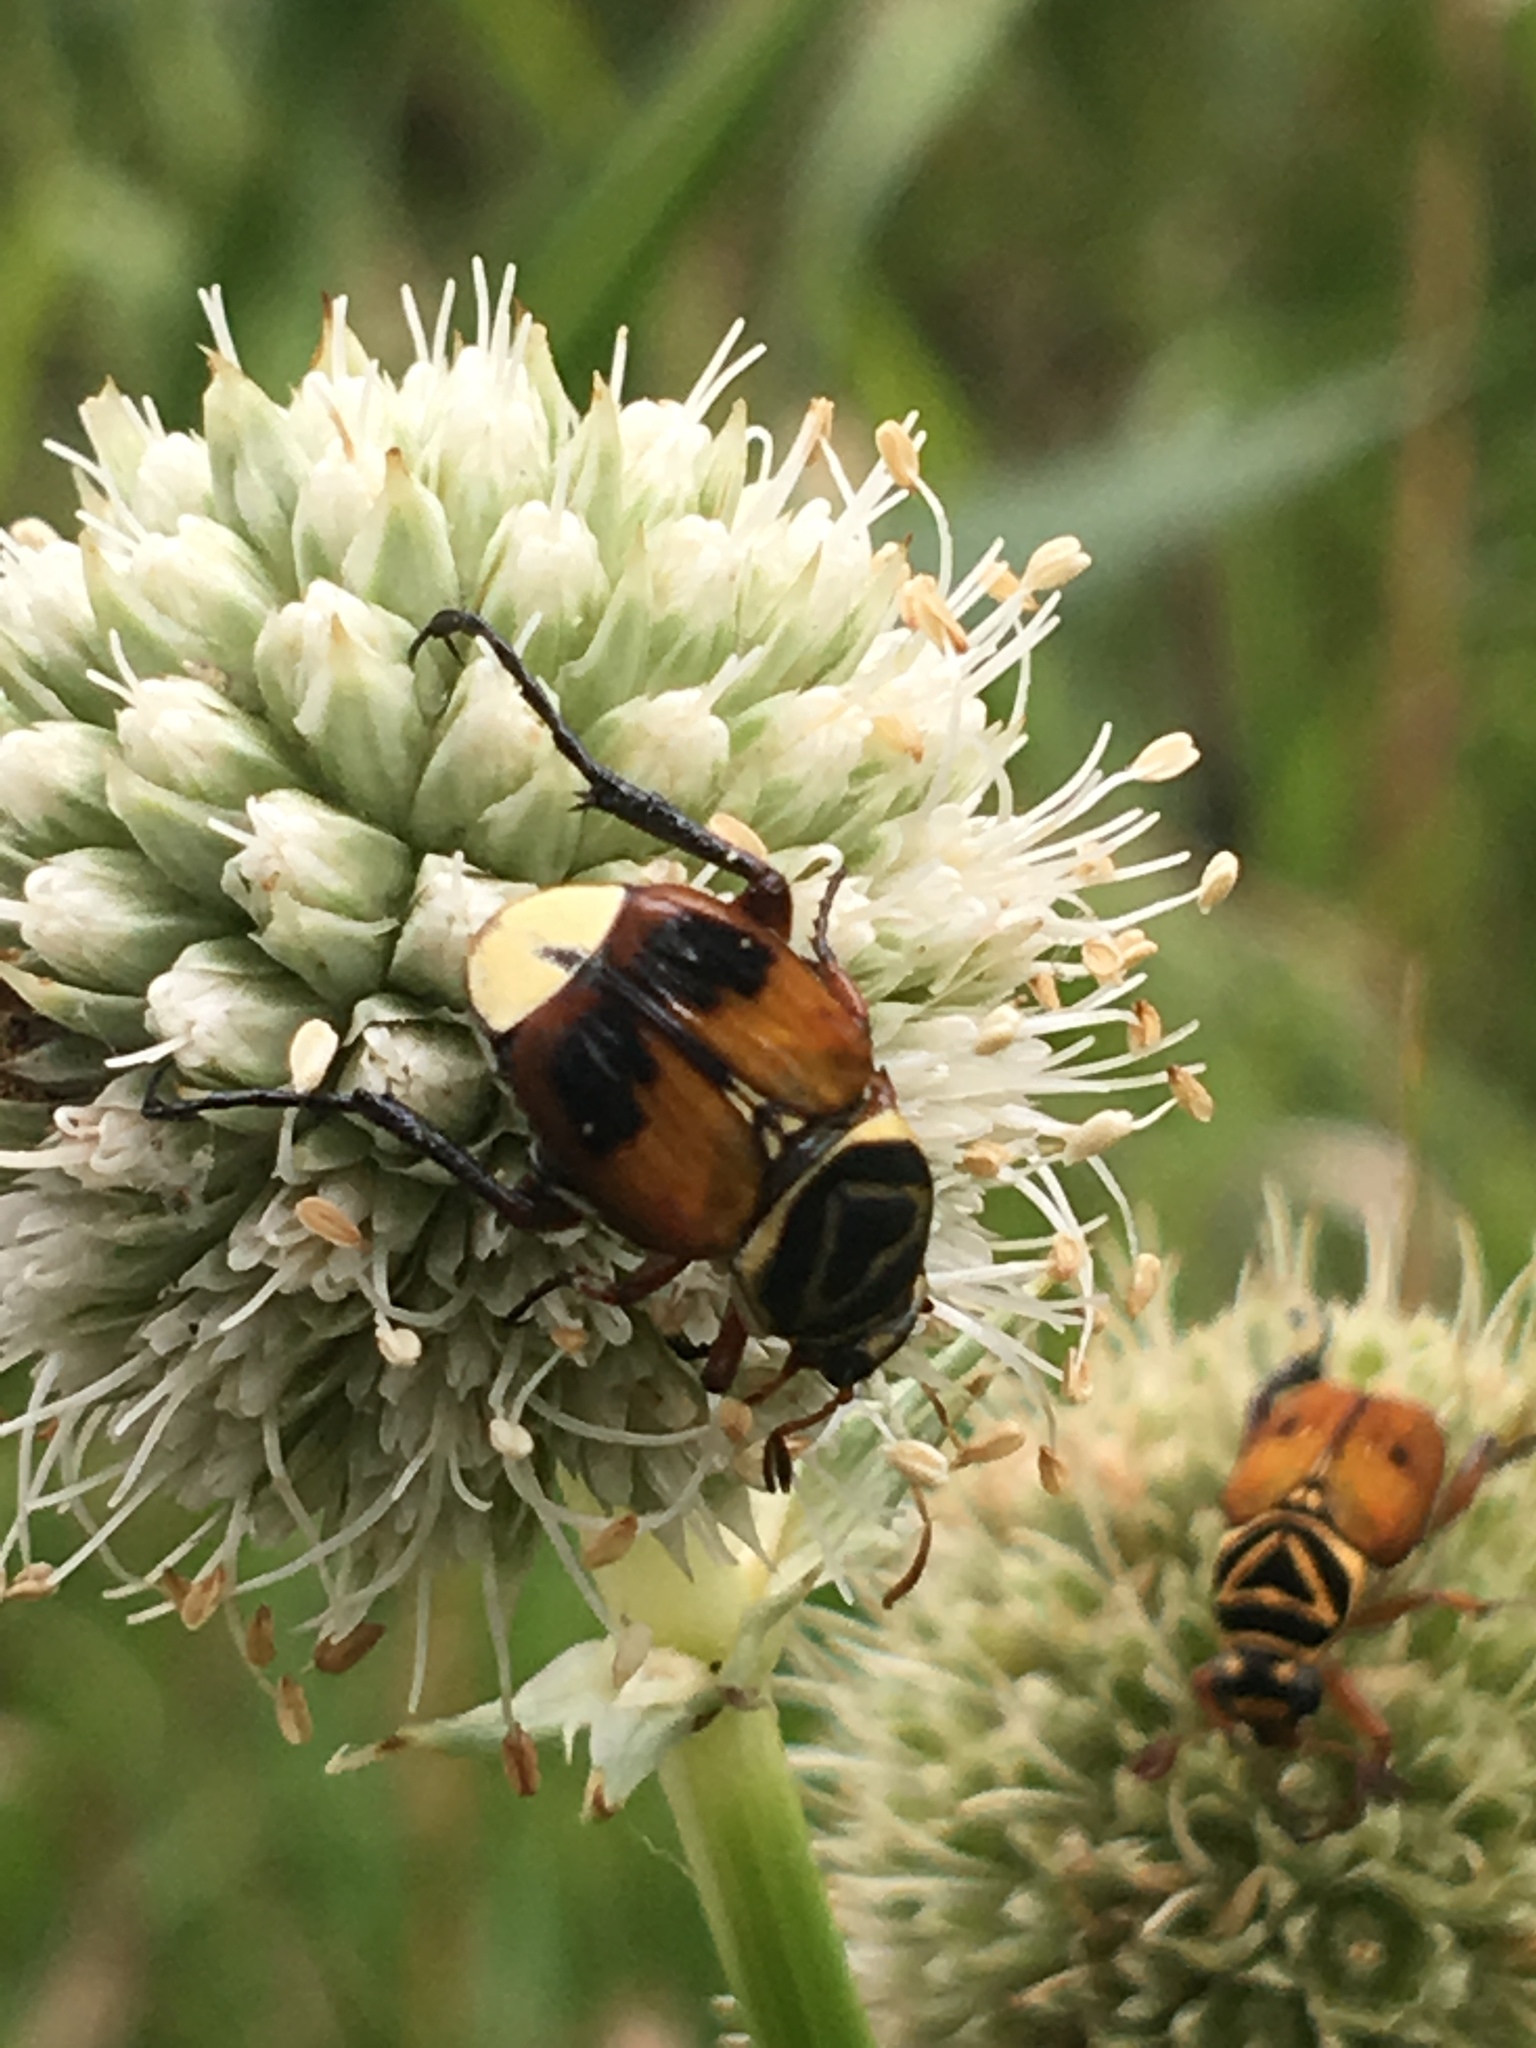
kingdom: Animalia
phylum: Arthropoda
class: Insecta
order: Coleoptera
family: Scarabaeidae
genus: Trigonopeltastes
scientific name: Trigonopeltastes delta
